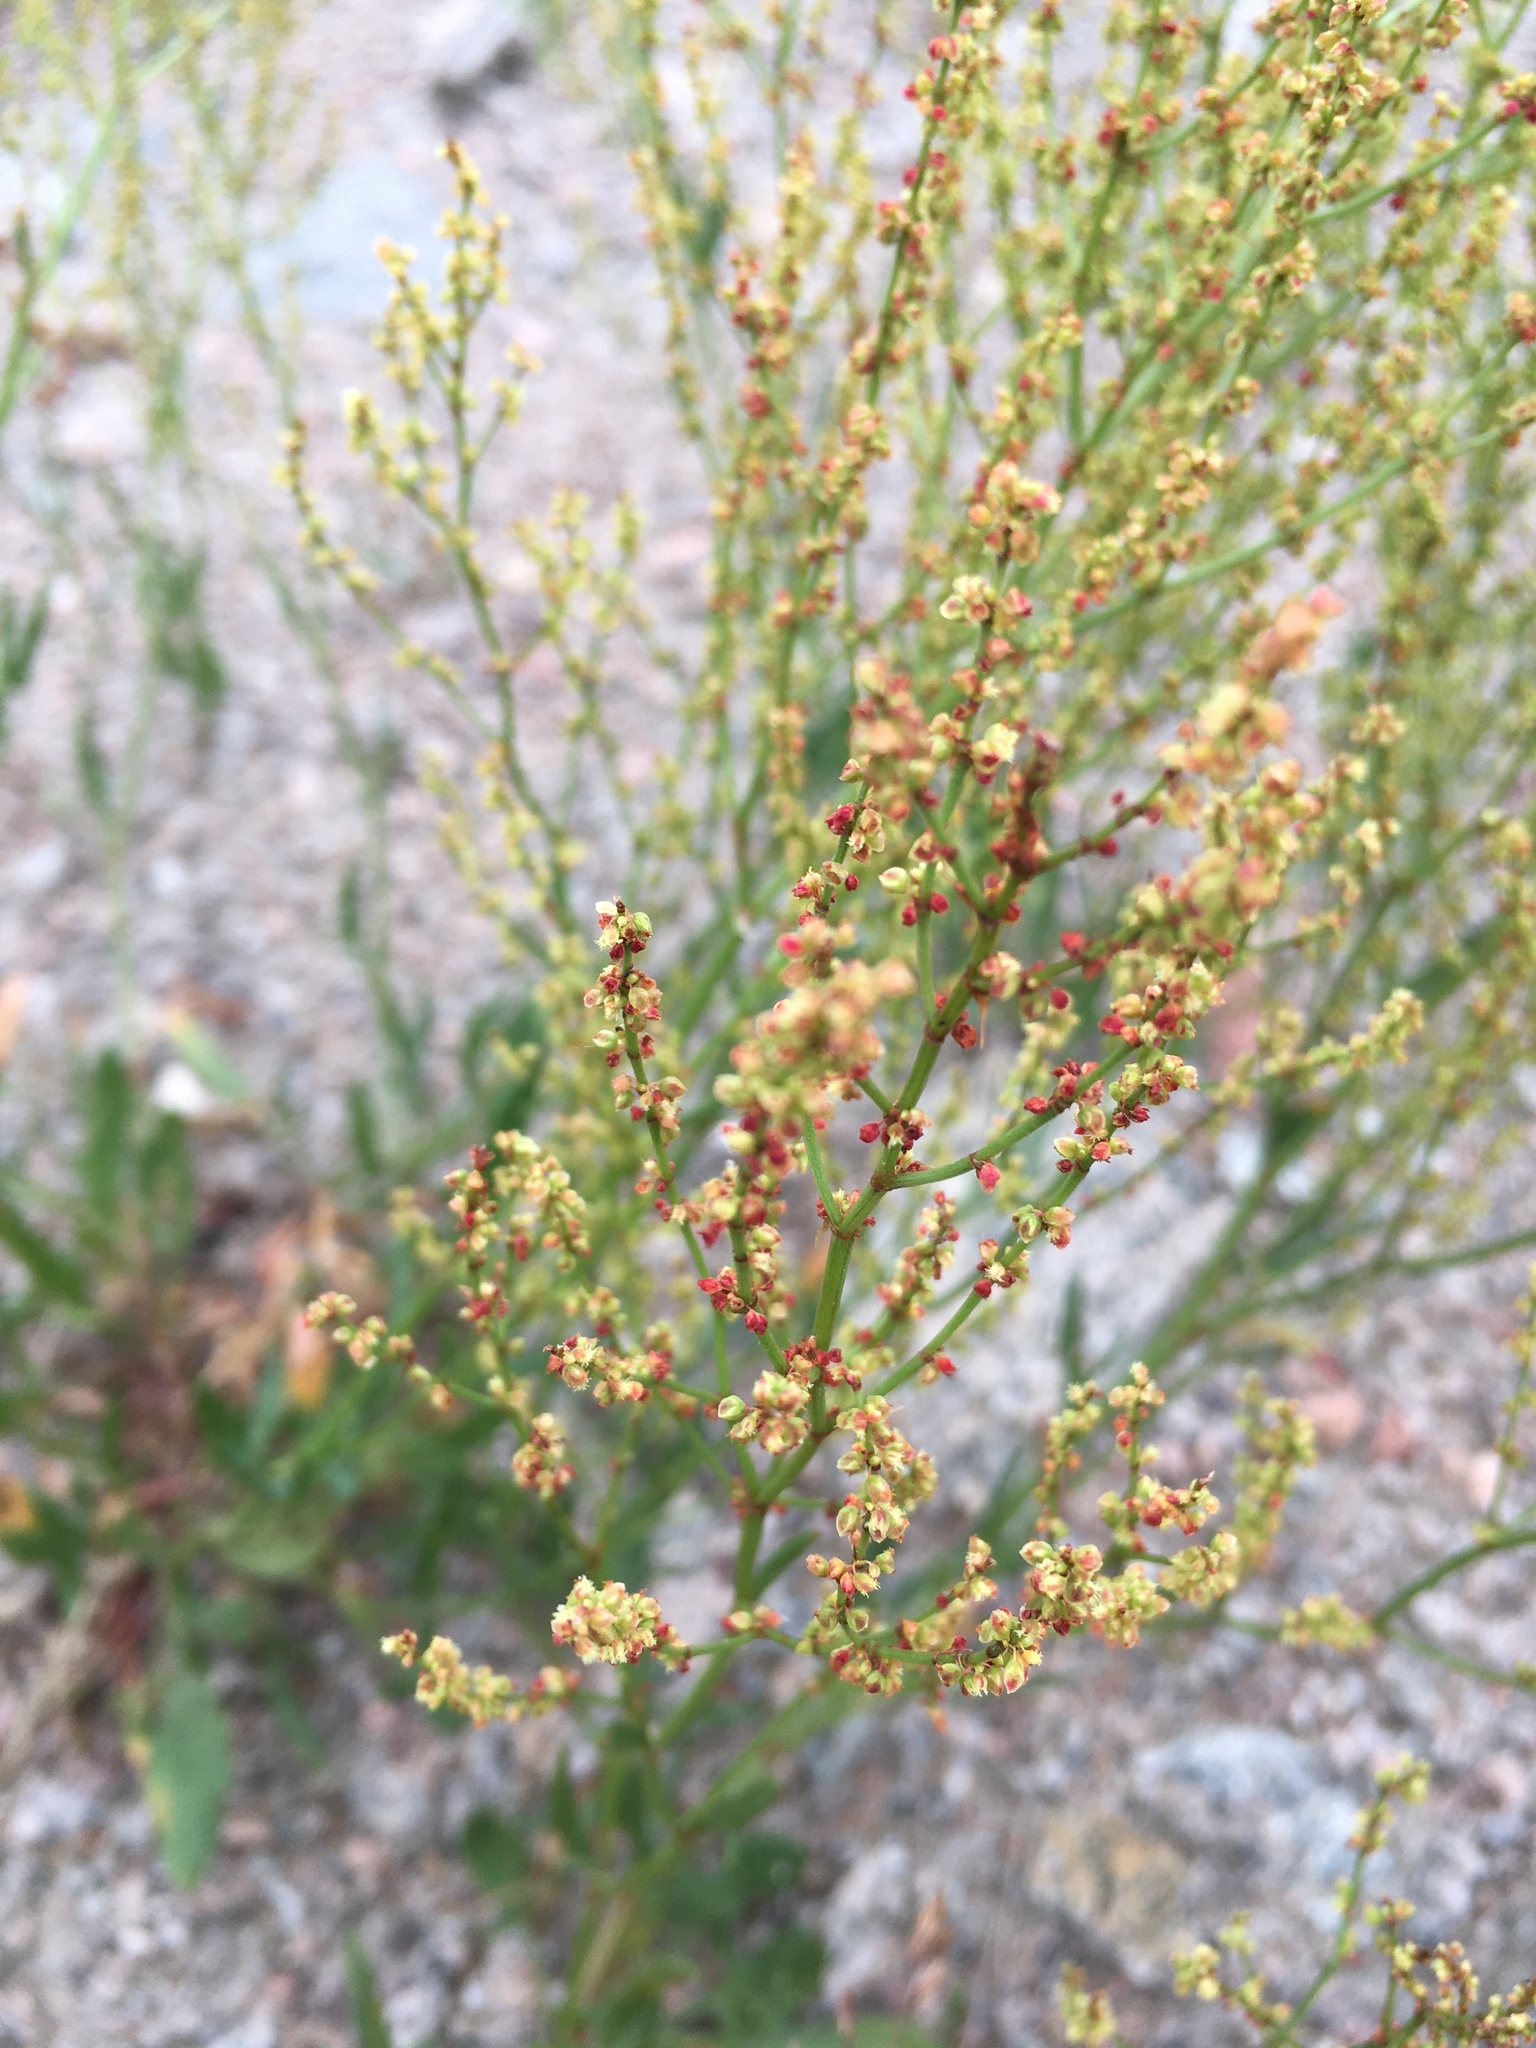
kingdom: Plantae
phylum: Tracheophyta
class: Magnoliopsida
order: Caryophyllales
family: Polygonaceae
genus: Rumex
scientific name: Rumex acetosella
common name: Common sheep sorrel
